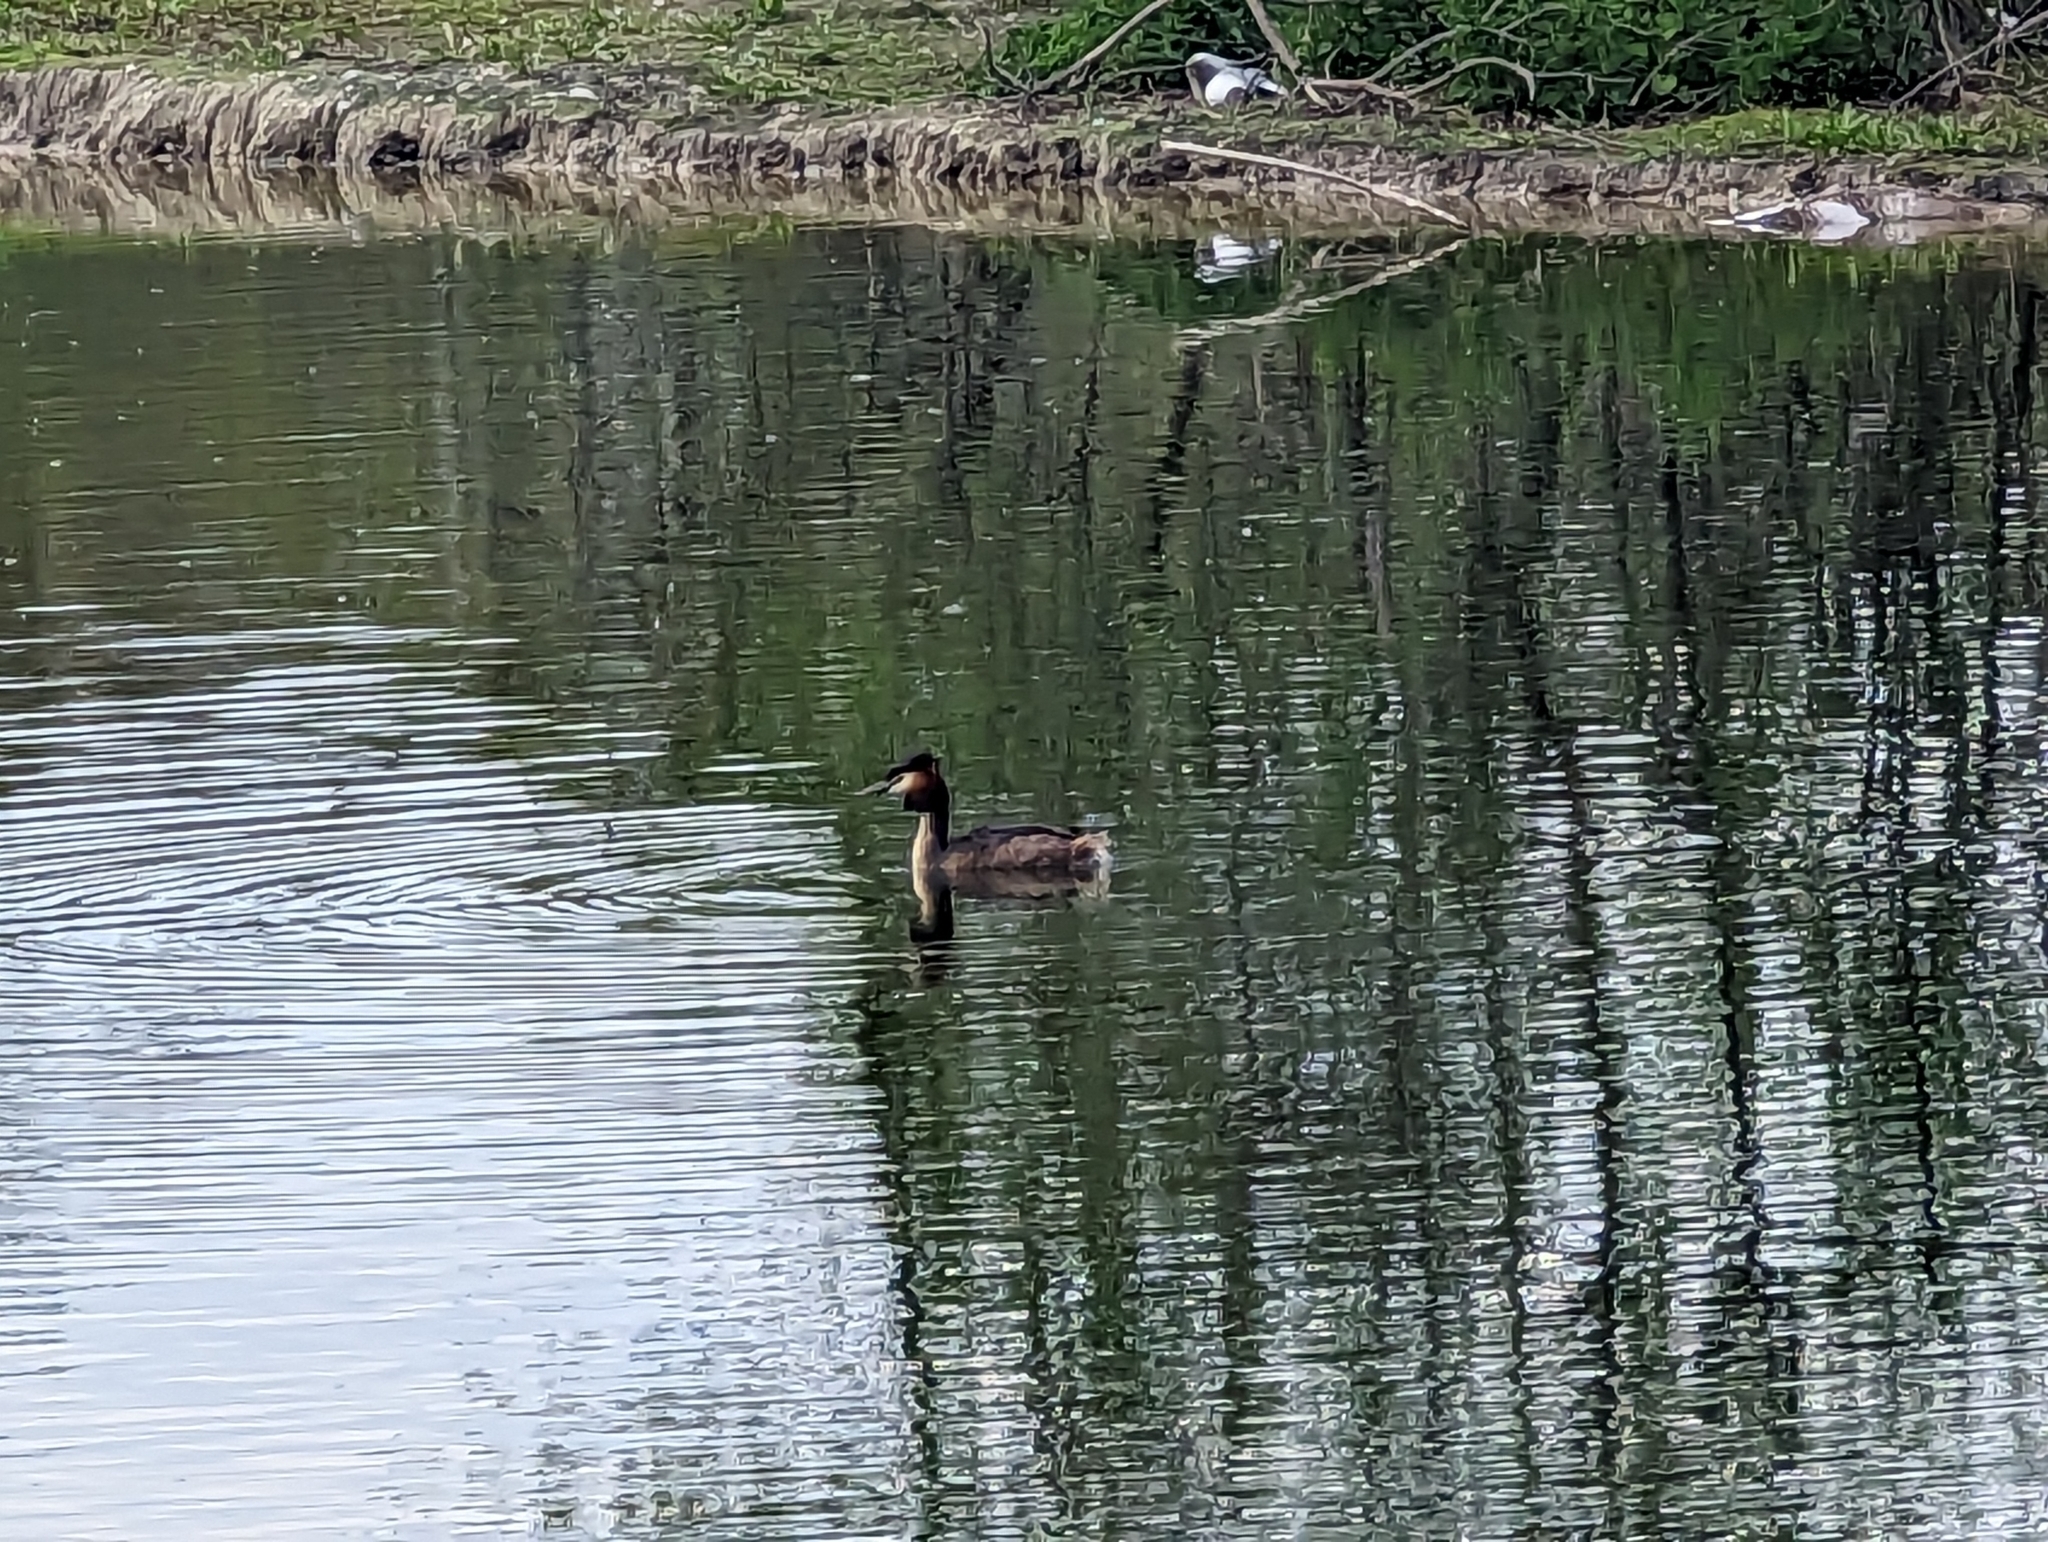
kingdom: Animalia
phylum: Chordata
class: Aves
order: Podicipediformes
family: Podicipedidae
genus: Podiceps
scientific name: Podiceps cristatus
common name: Great crested grebe
